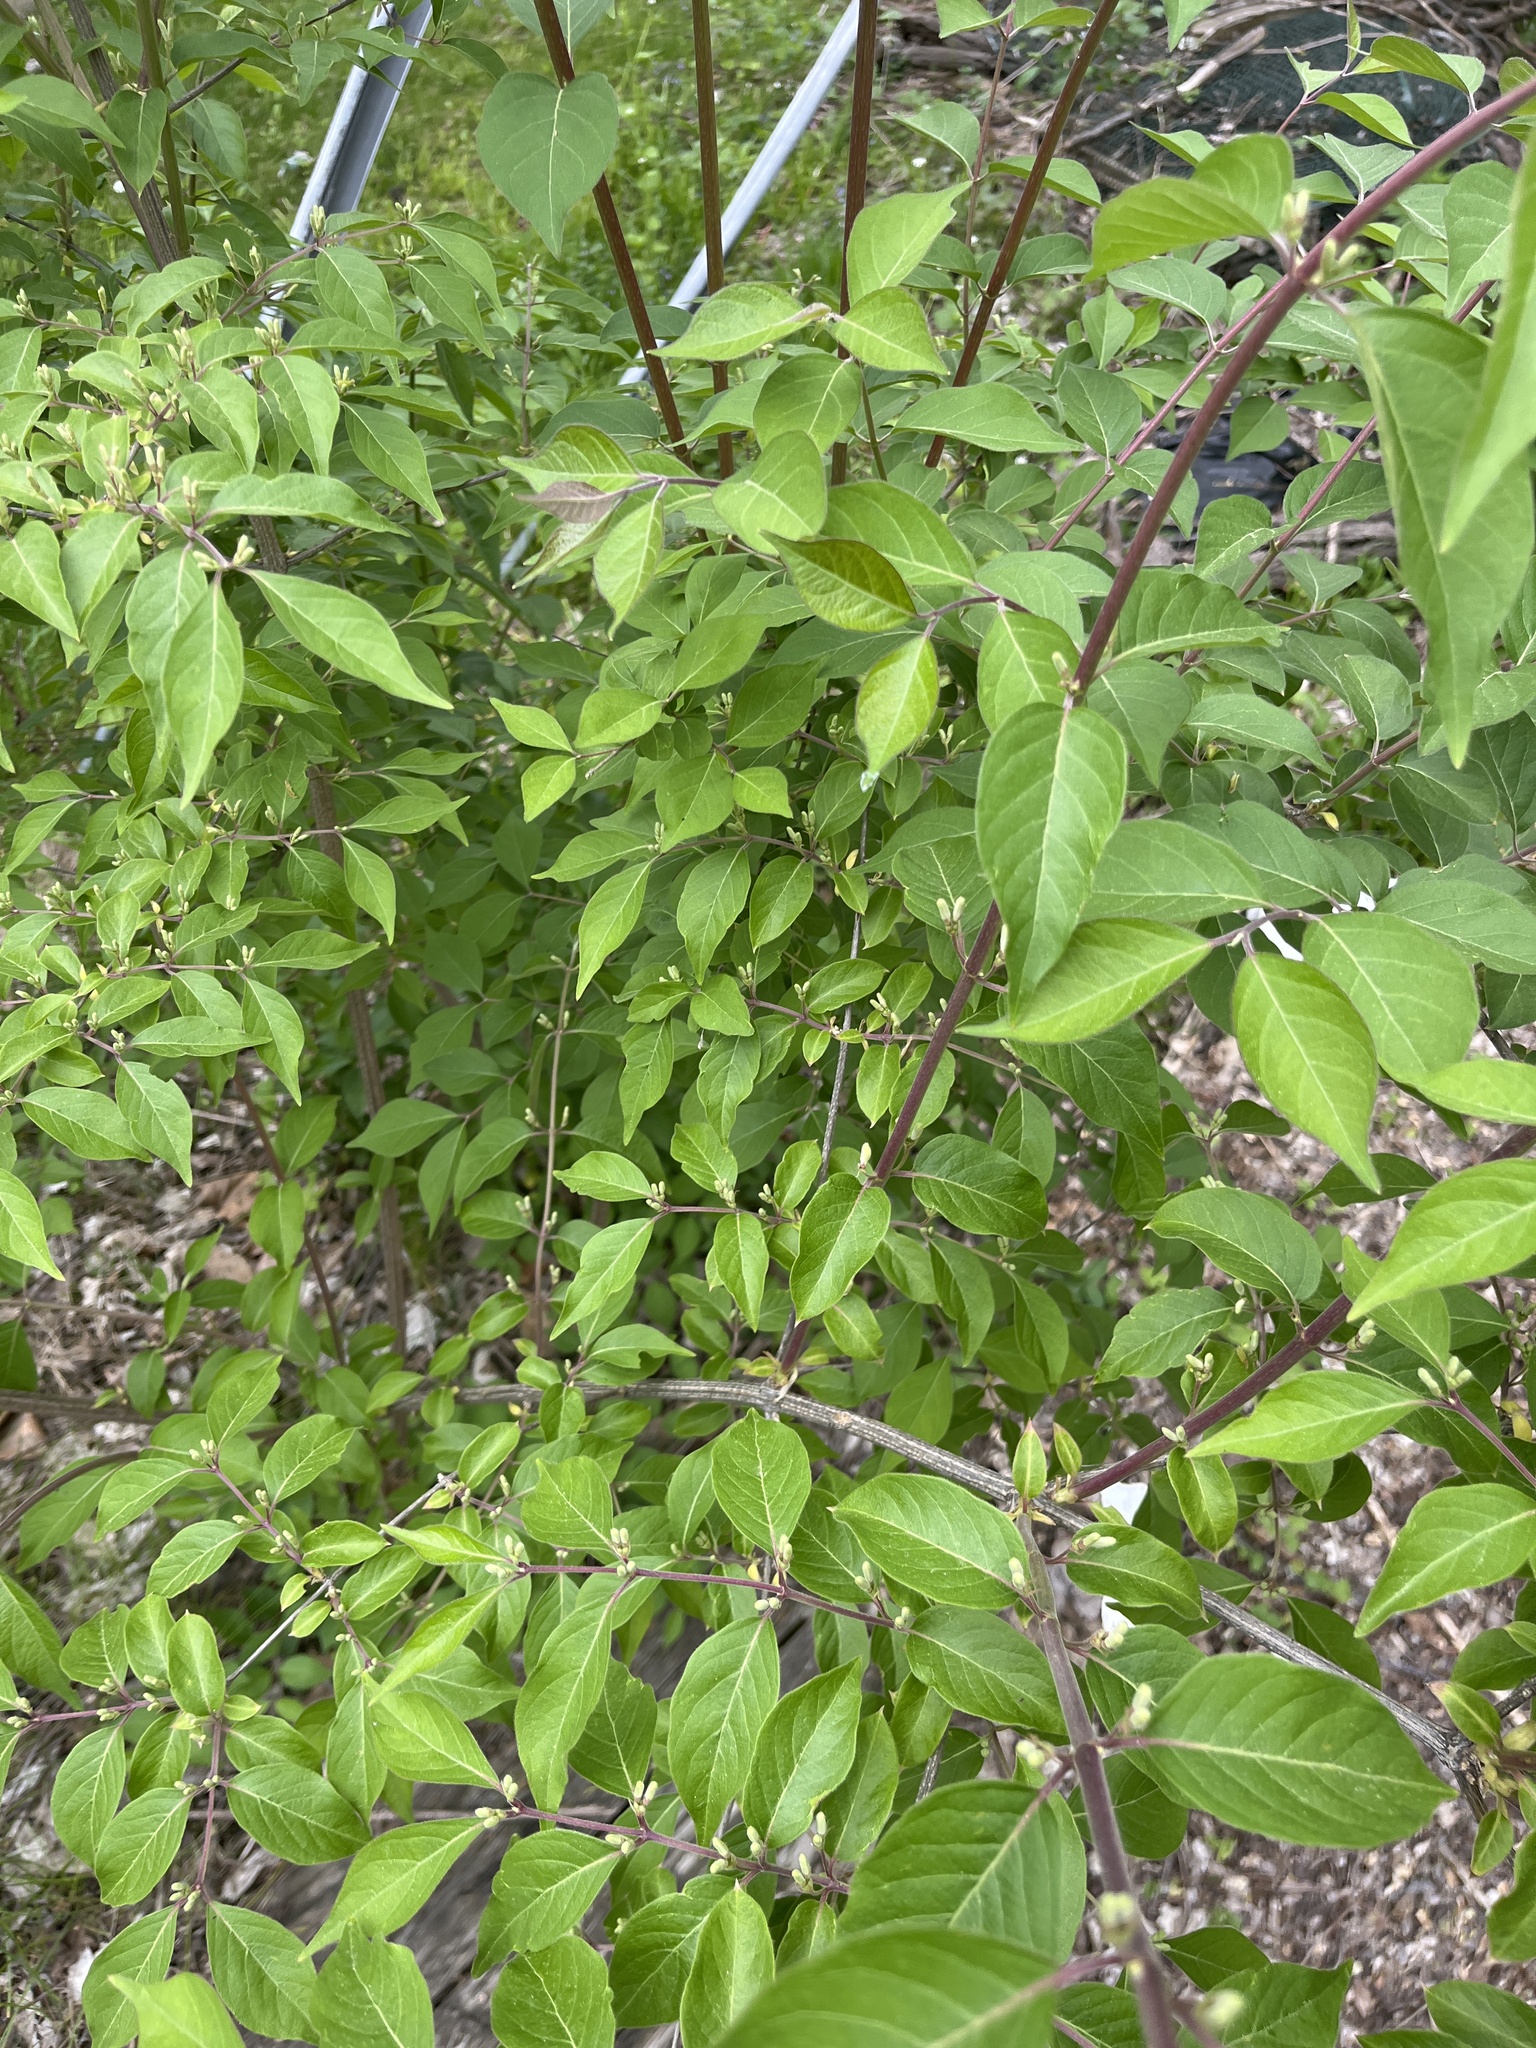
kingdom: Plantae
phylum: Tracheophyta
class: Magnoliopsida
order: Dipsacales
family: Caprifoliaceae
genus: Lonicera
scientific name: Lonicera maackii
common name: Amur honeysuckle
